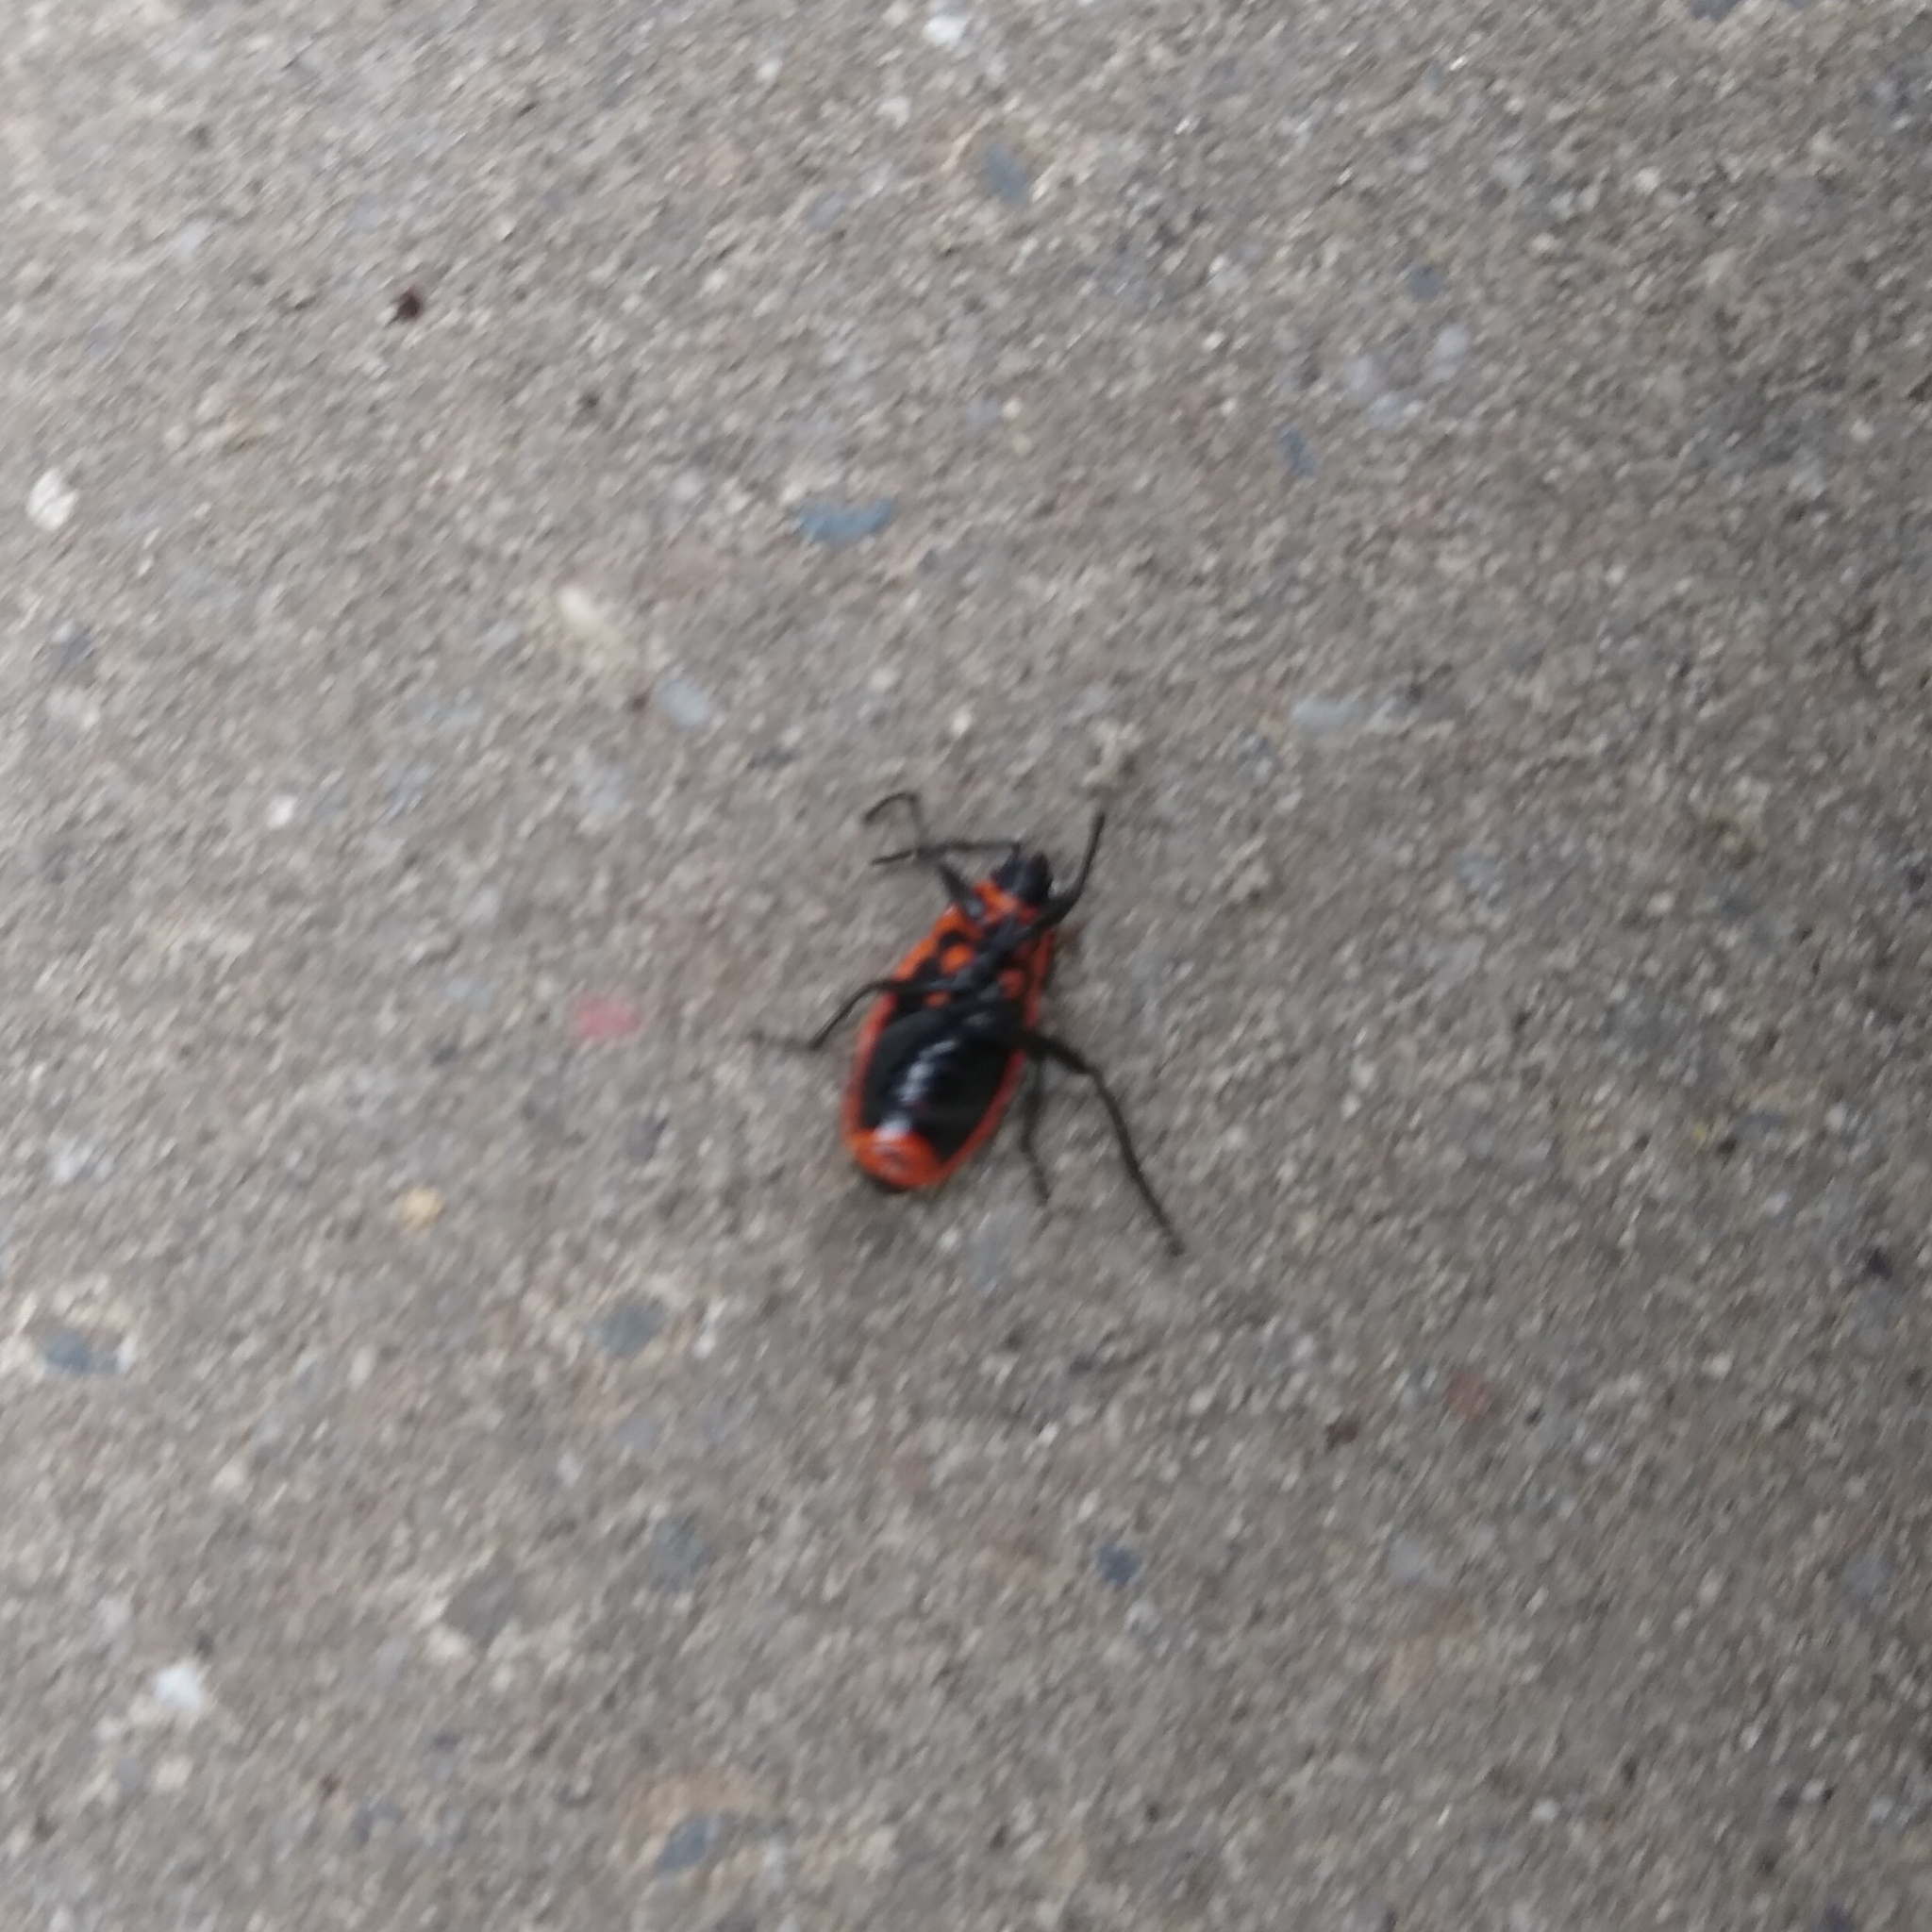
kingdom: Animalia
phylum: Arthropoda
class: Insecta
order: Hemiptera
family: Pyrrhocoridae
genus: Pyrrhocoris
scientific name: Pyrrhocoris apterus
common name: Firebug
